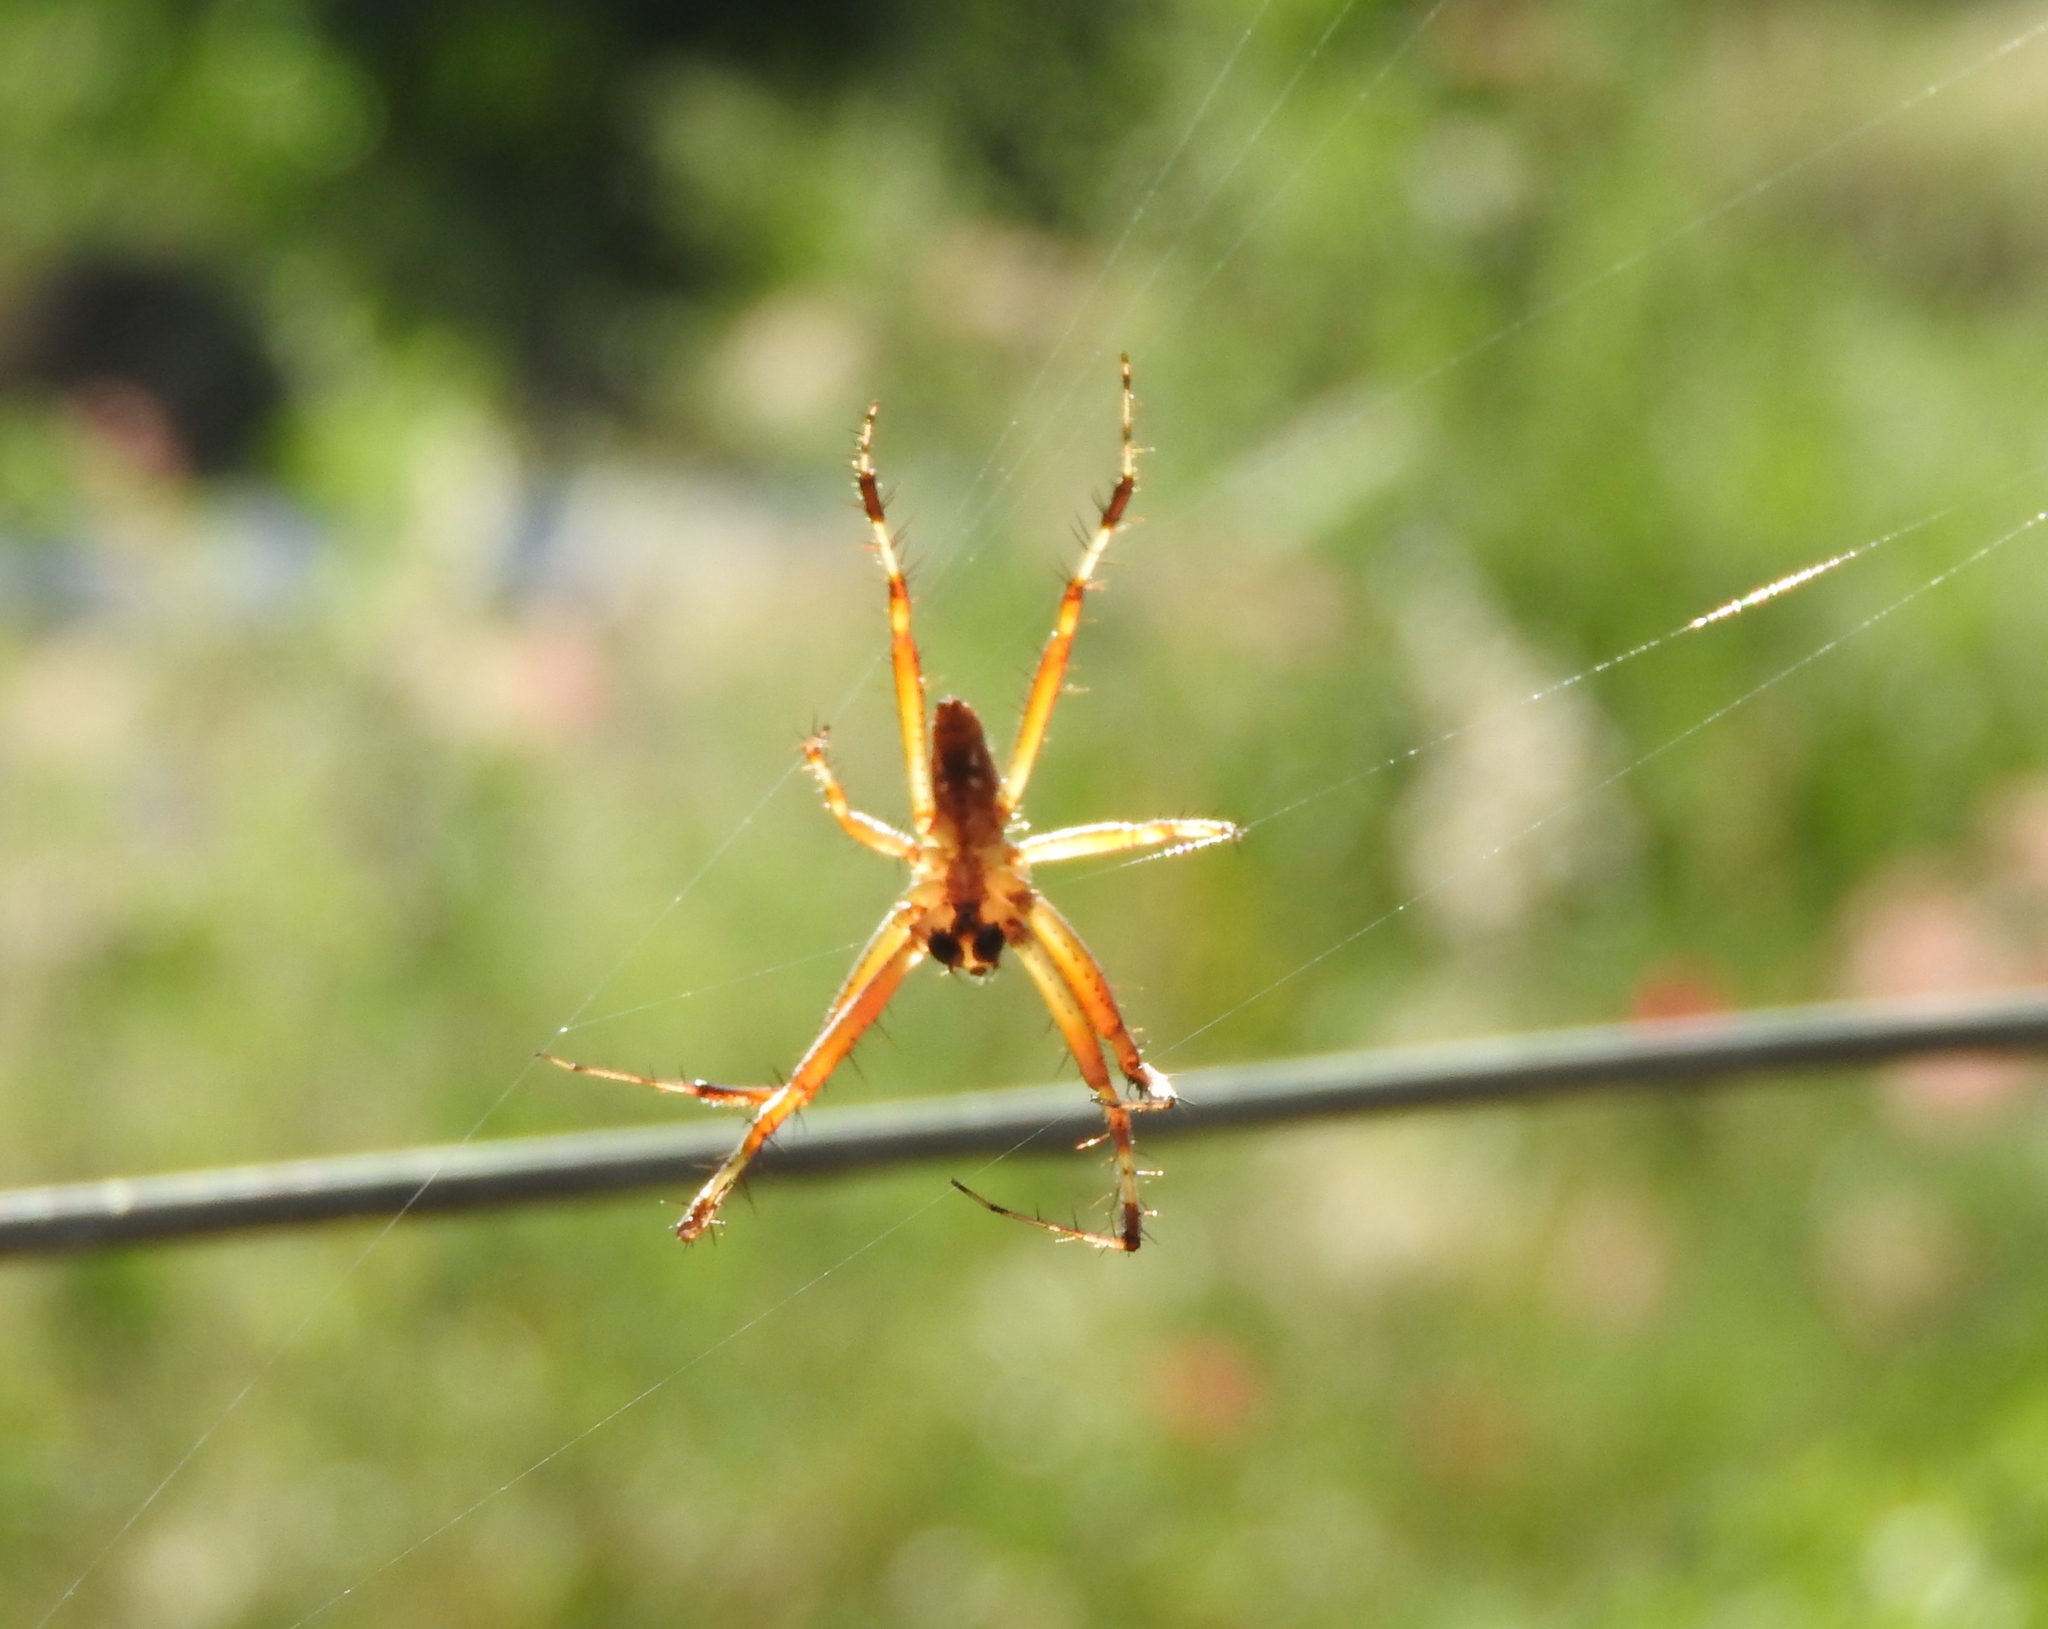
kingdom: Animalia
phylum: Arthropoda
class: Arachnida
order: Araneae
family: Araneidae
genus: Neoscona
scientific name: Neoscona oaxacensis
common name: Orb weavers
